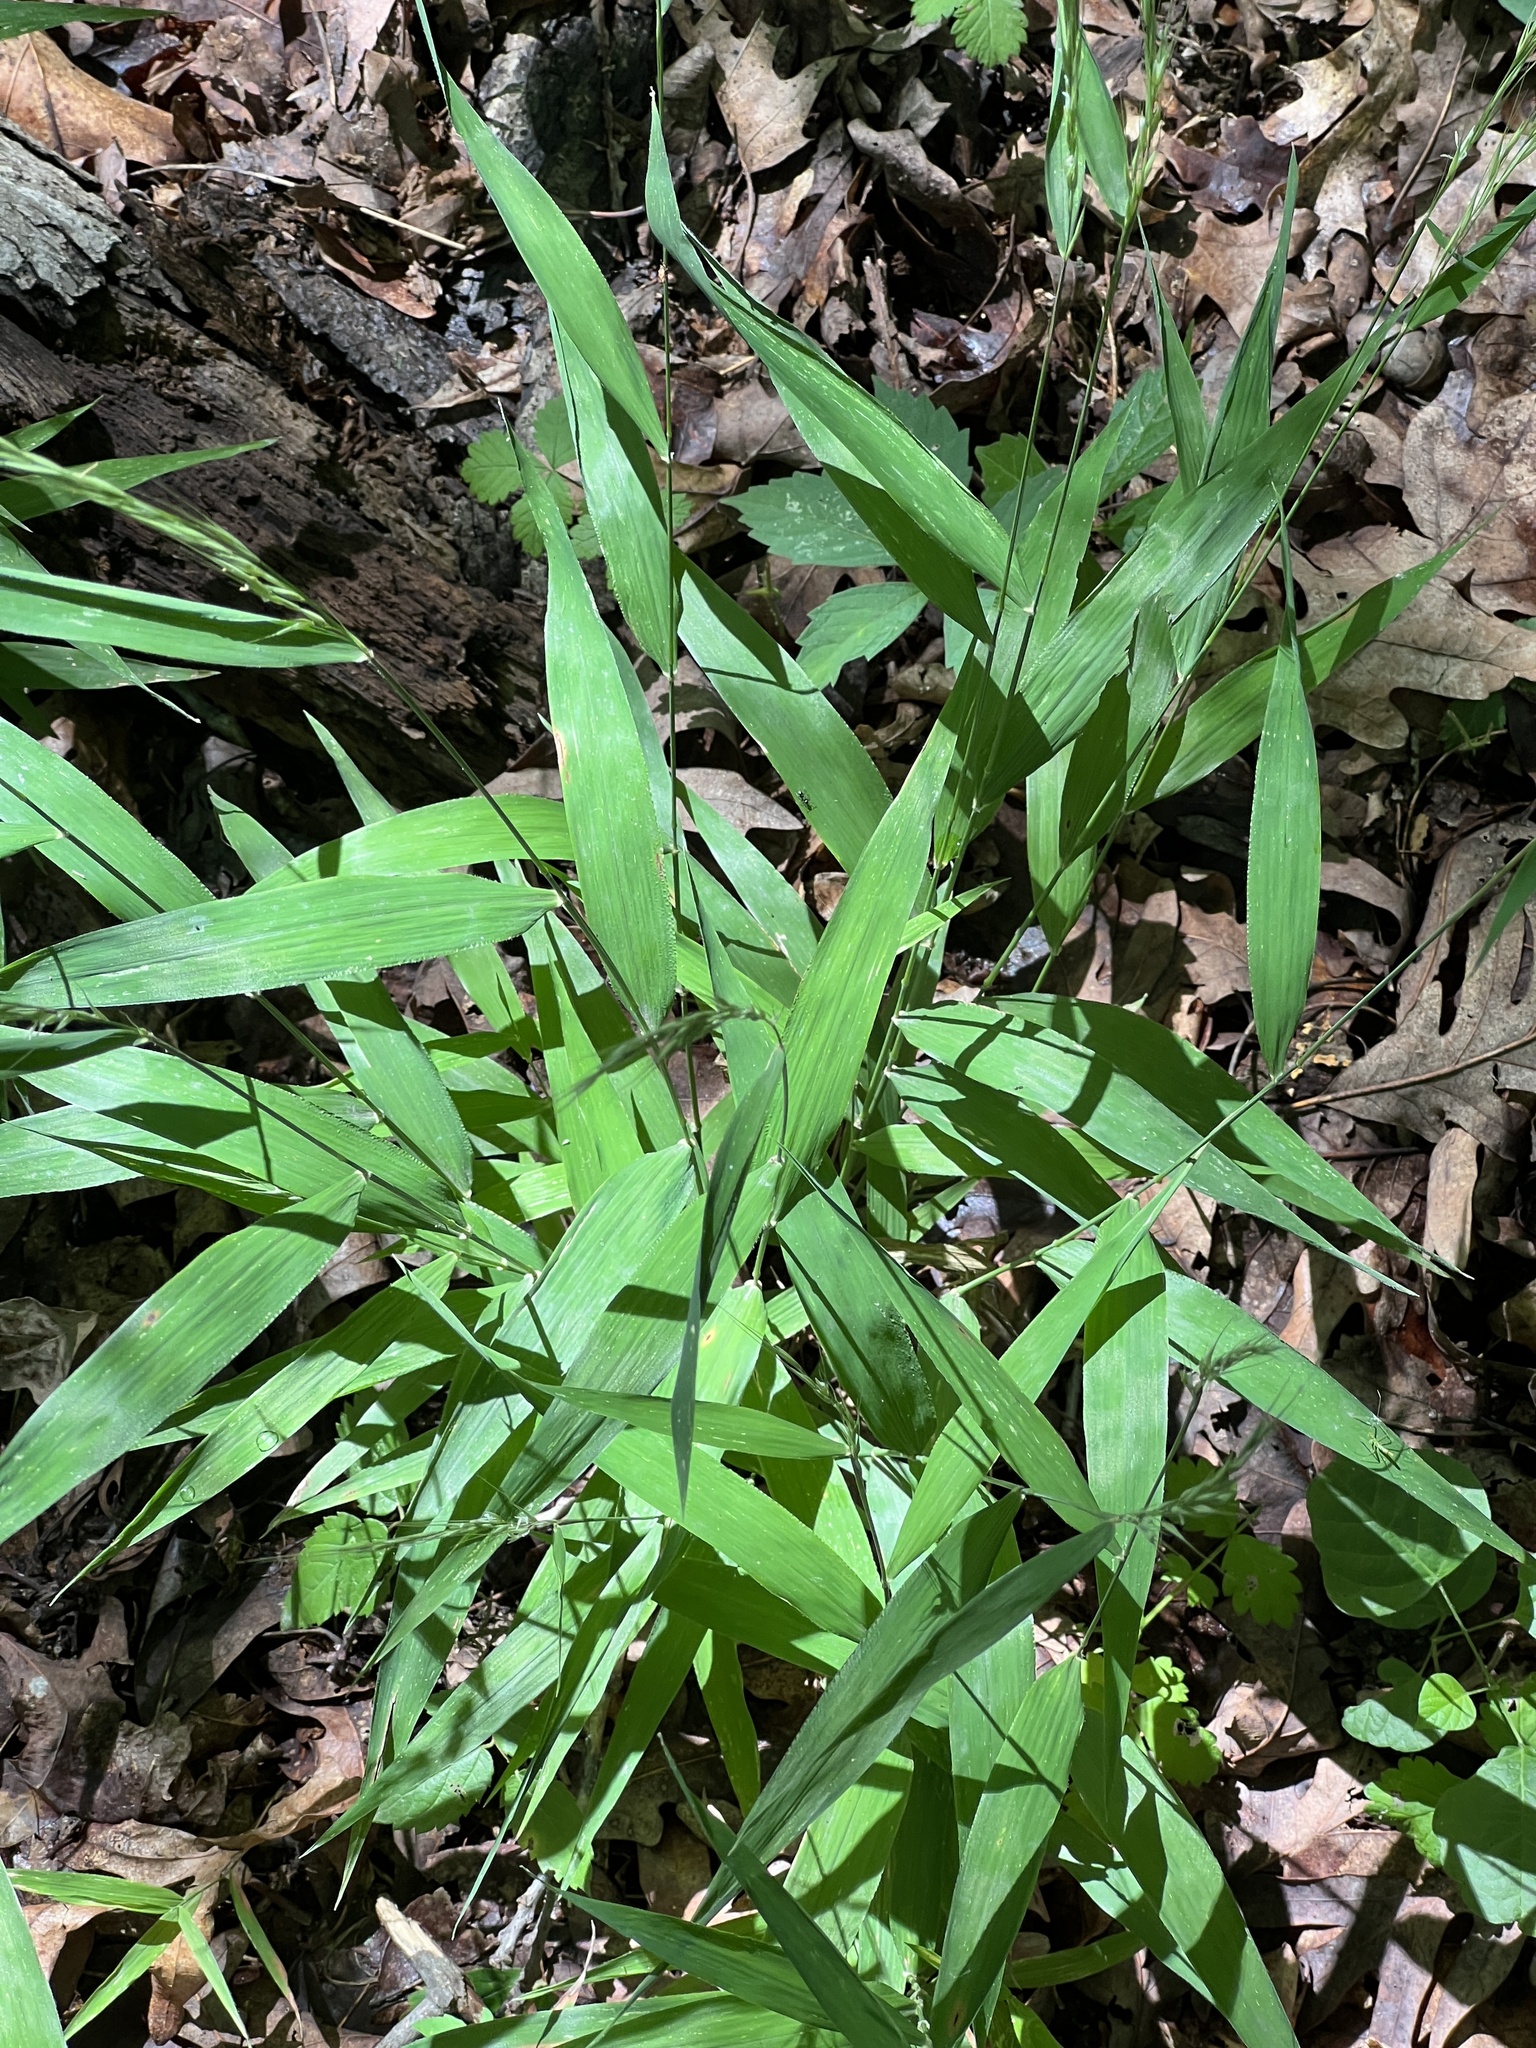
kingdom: Plantae
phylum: Tracheophyta
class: Liliopsida
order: Poales
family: Poaceae
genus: Brachyelytrum
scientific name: Brachyelytrum erectum
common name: Bearded shorthusk
